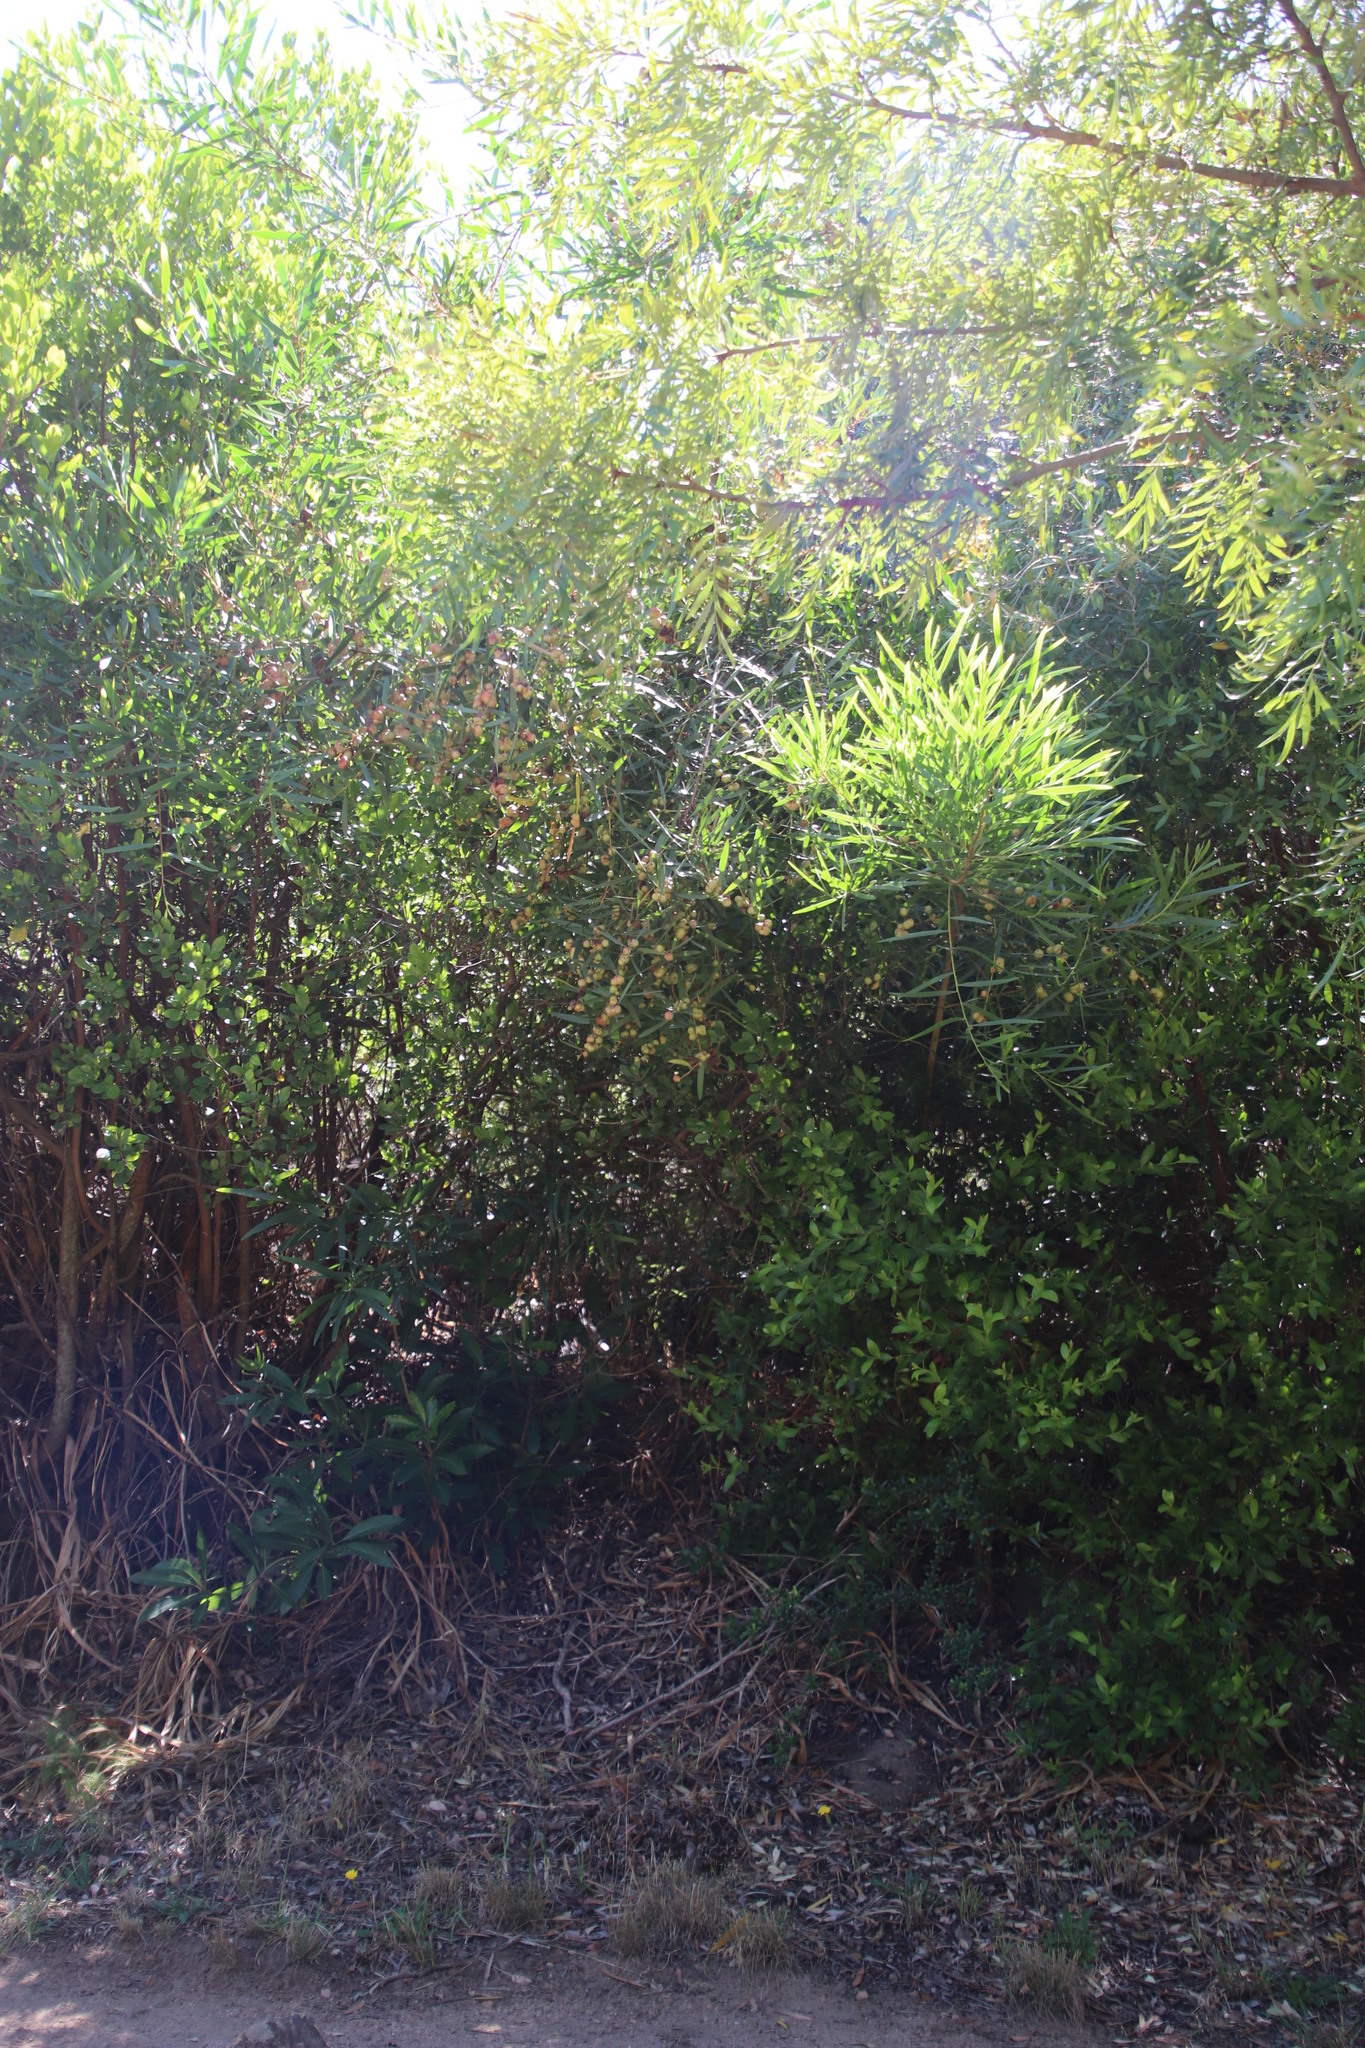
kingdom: Animalia
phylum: Arthropoda
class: Insecta
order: Hymenoptera
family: Pteromalidae
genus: Trichilogaster
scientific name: Trichilogaster acaciaelongifoliae
